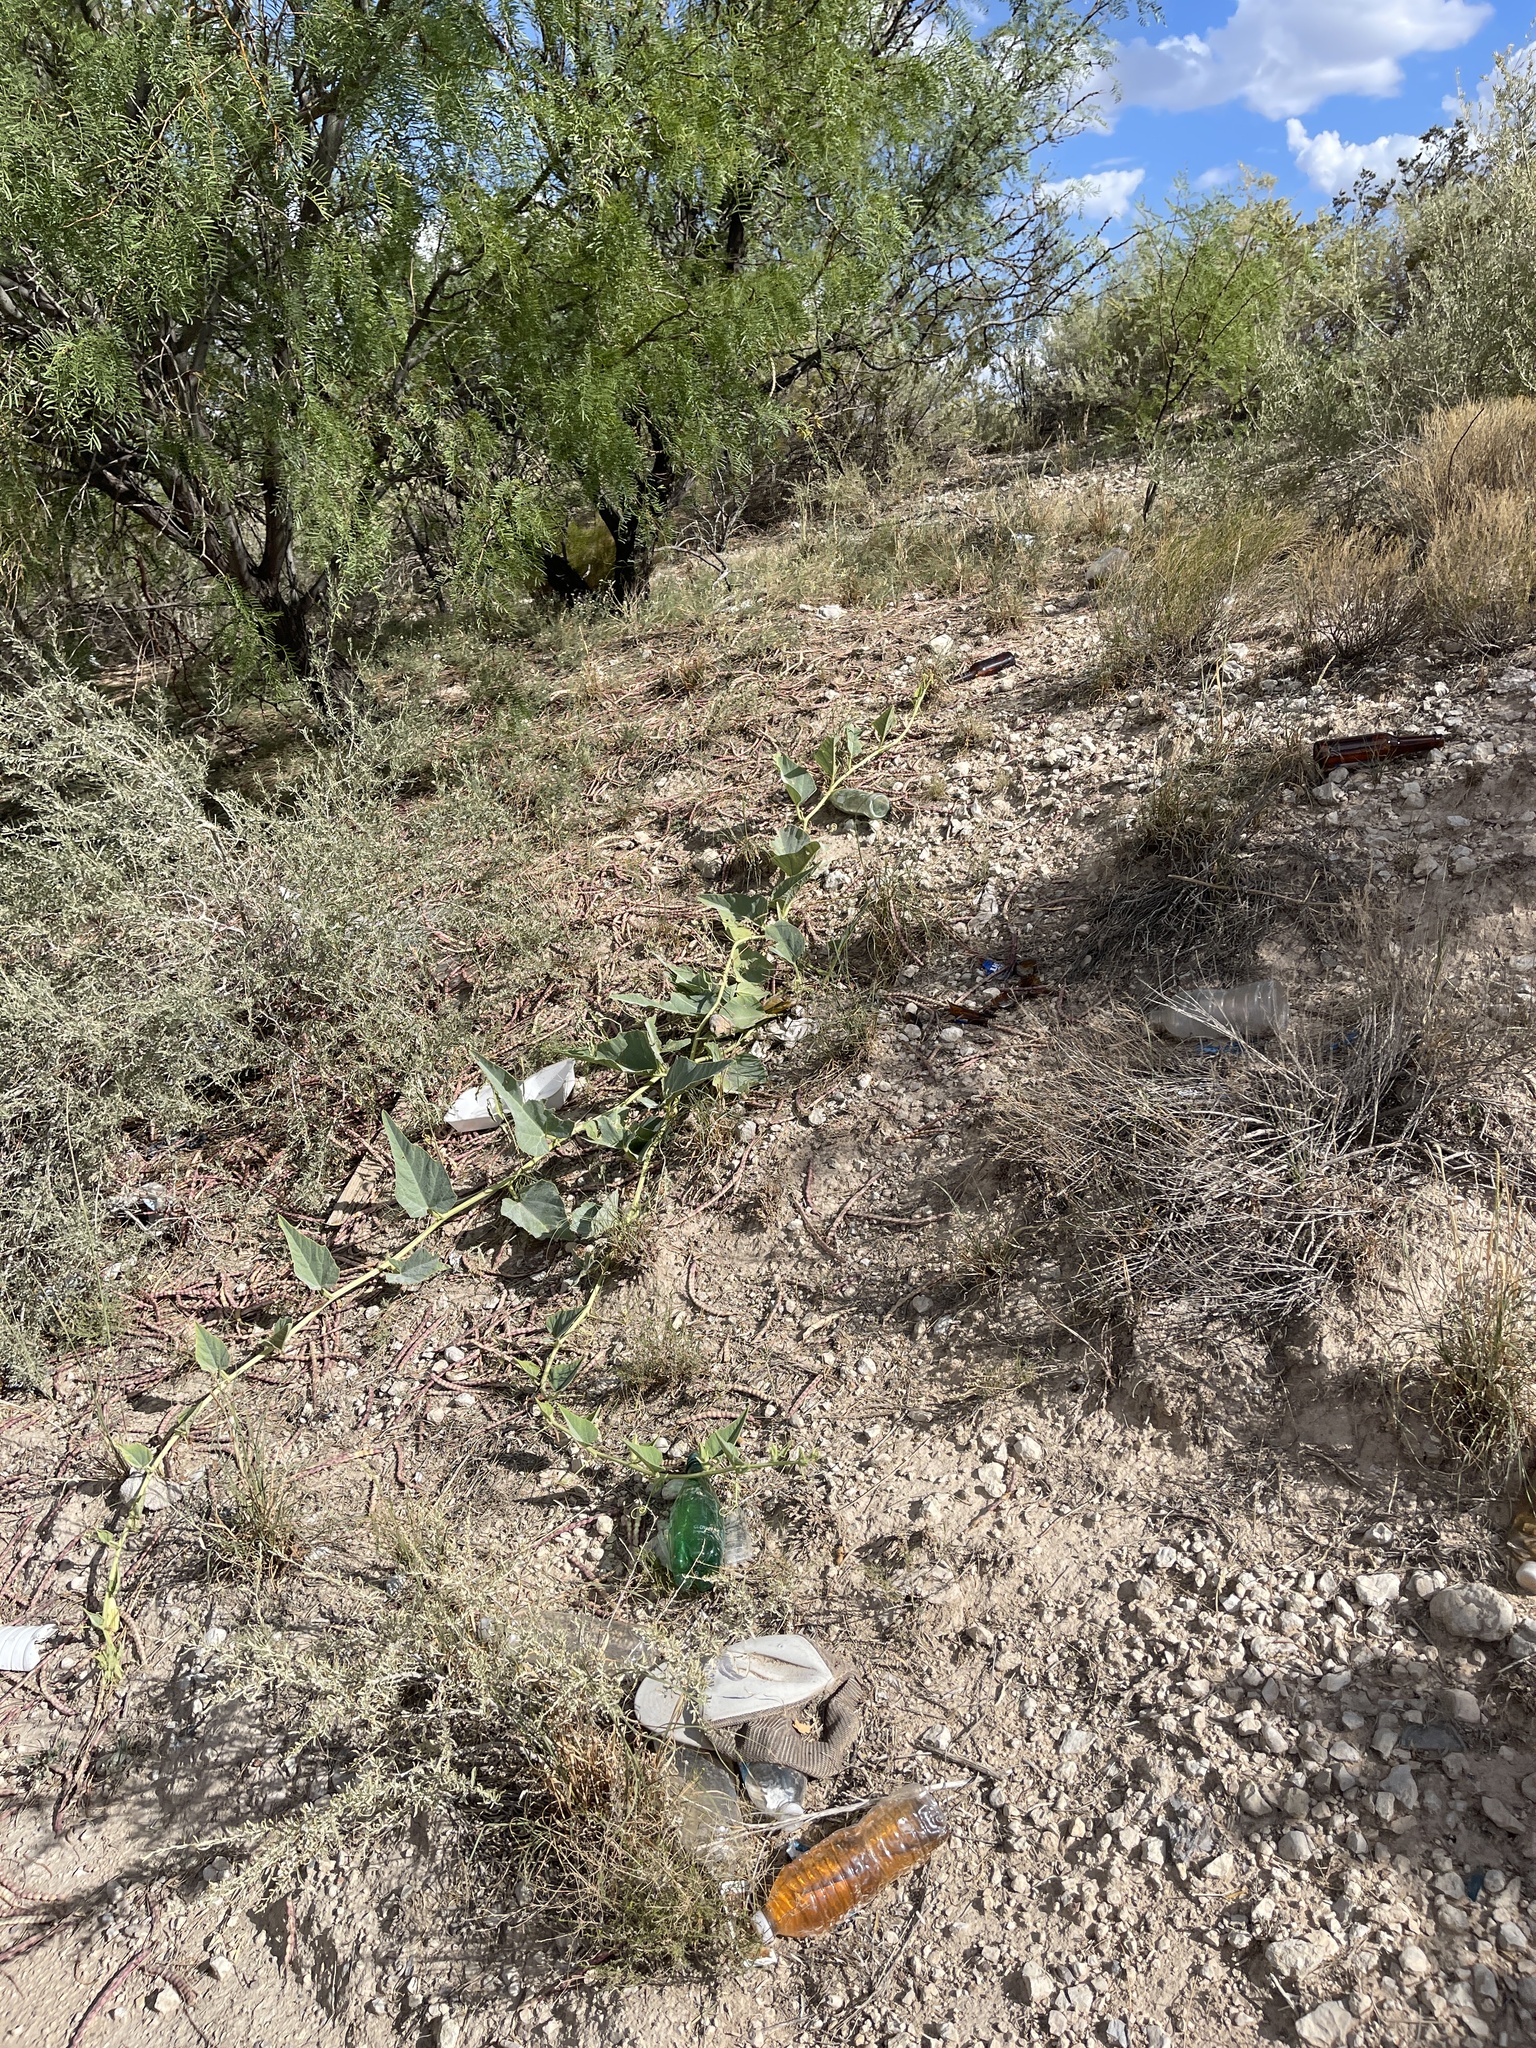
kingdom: Plantae
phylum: Tracheophyta
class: Magnoliopsida
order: Cucurbitales
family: Cucurbitaceae
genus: Cucurbita
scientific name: Cucurbita foetidissima
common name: Buffalo gourd
